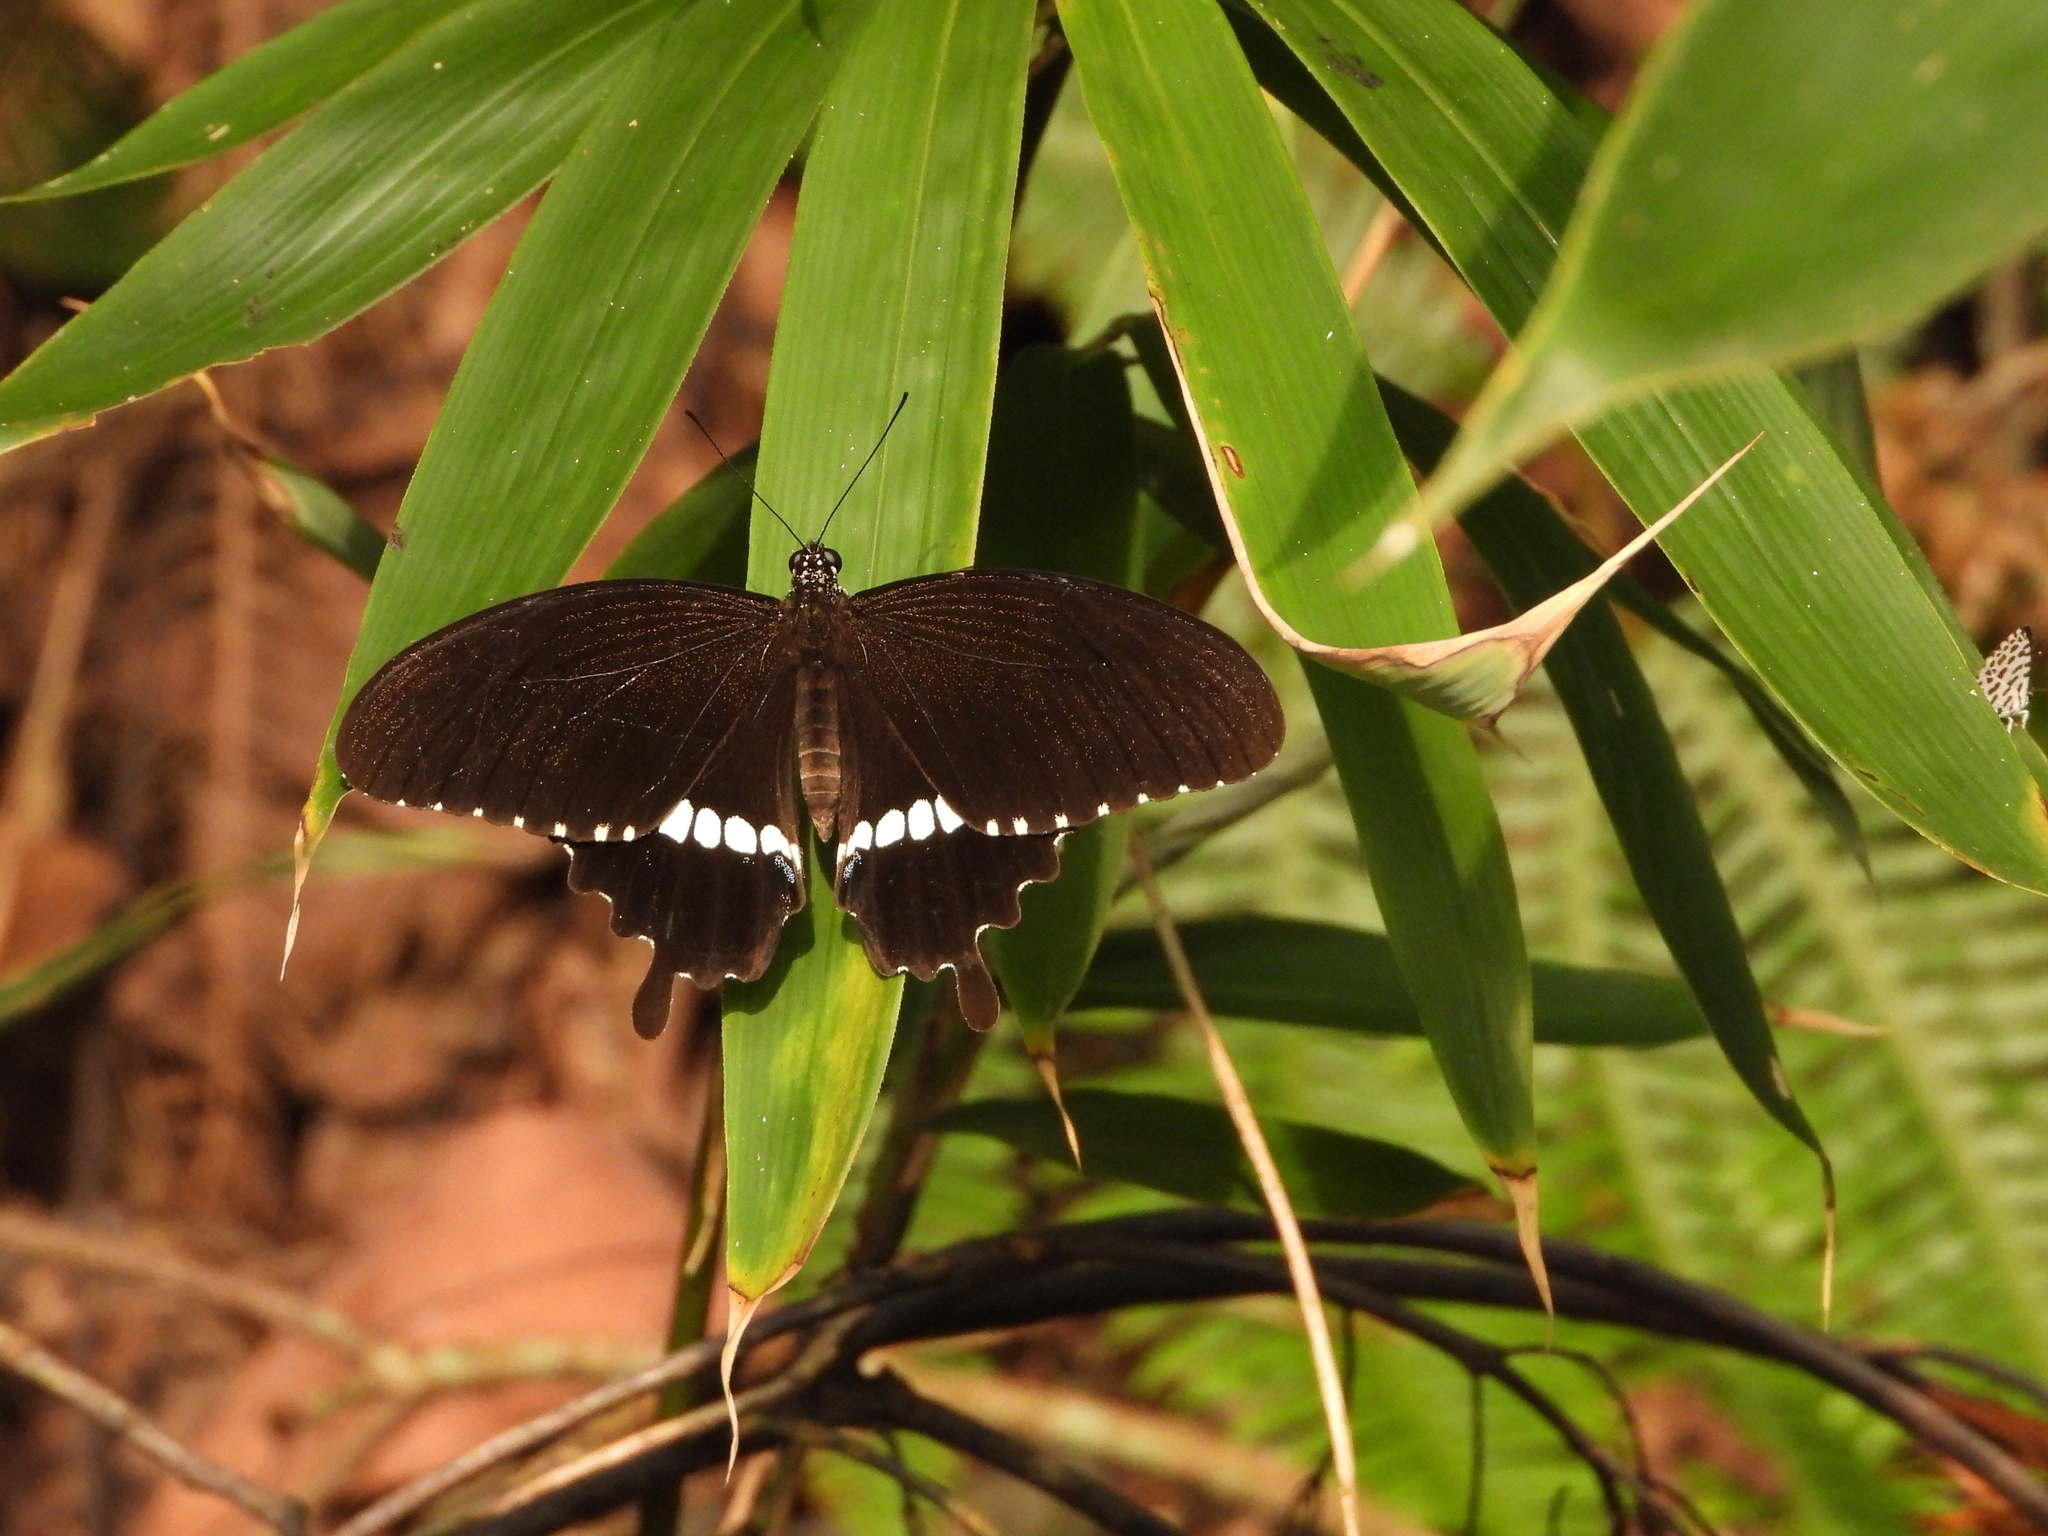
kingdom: Animalia
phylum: Arthropoda
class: Insecta
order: Lepidoptera
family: Papilionidae
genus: Papilio
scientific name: Papilio polytes
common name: Common mormon
